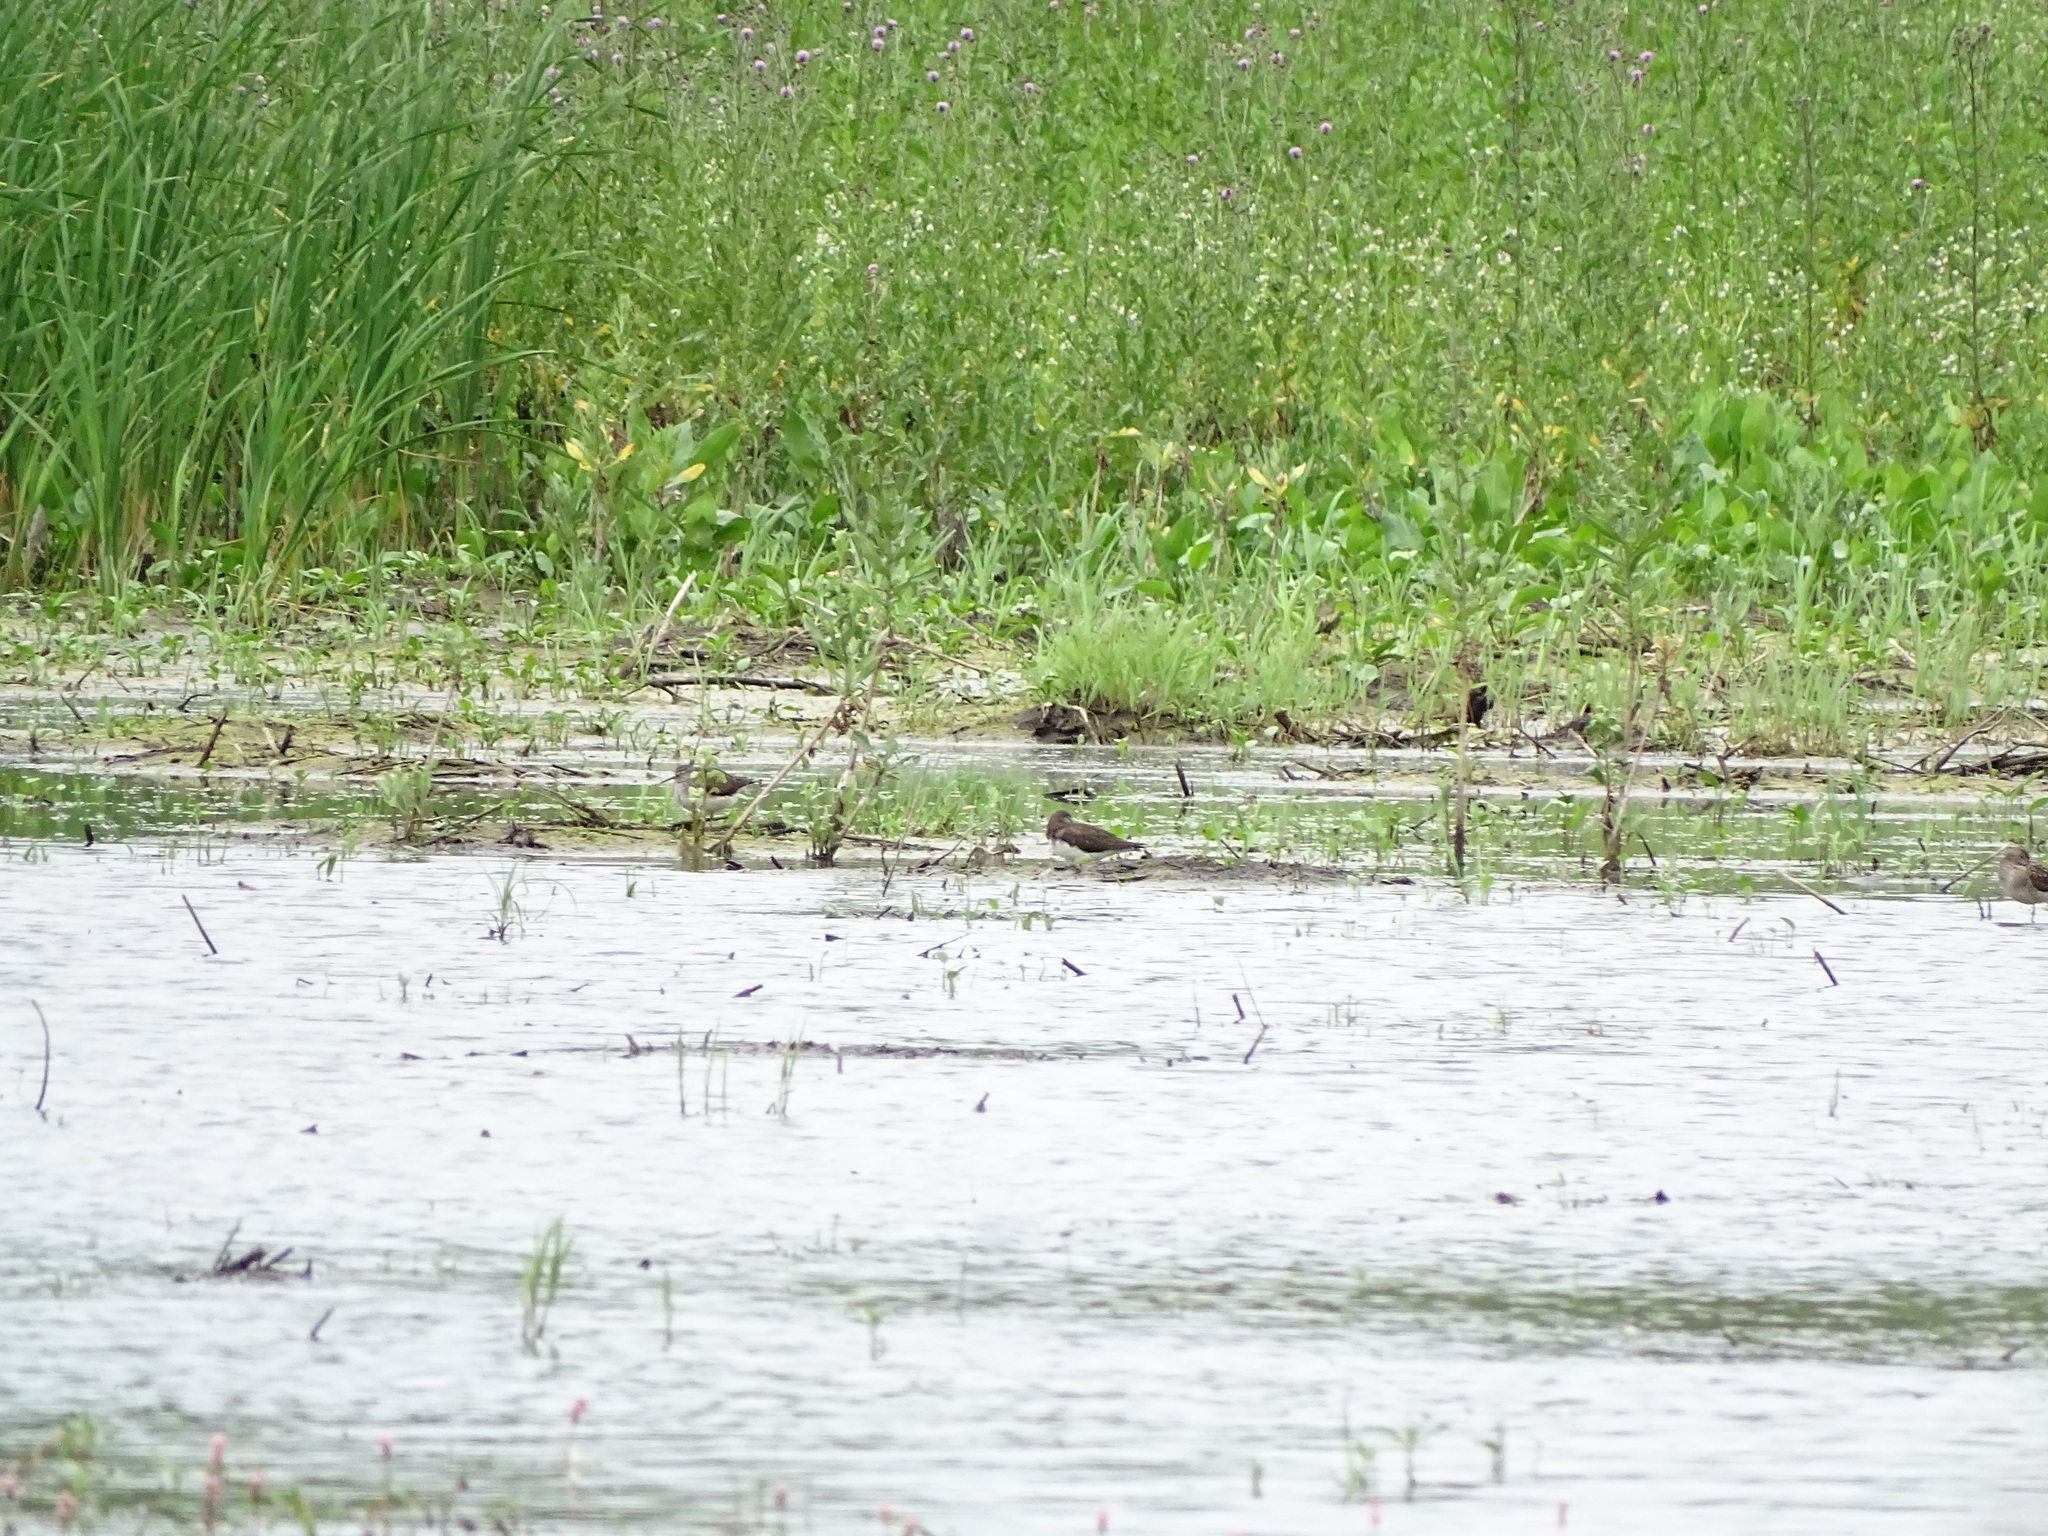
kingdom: Animalia
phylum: Chordata
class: Aves
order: Charadriiformes
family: Scolopacidae
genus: Tringa
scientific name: Tringa ochropus
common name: Green sandpiper
